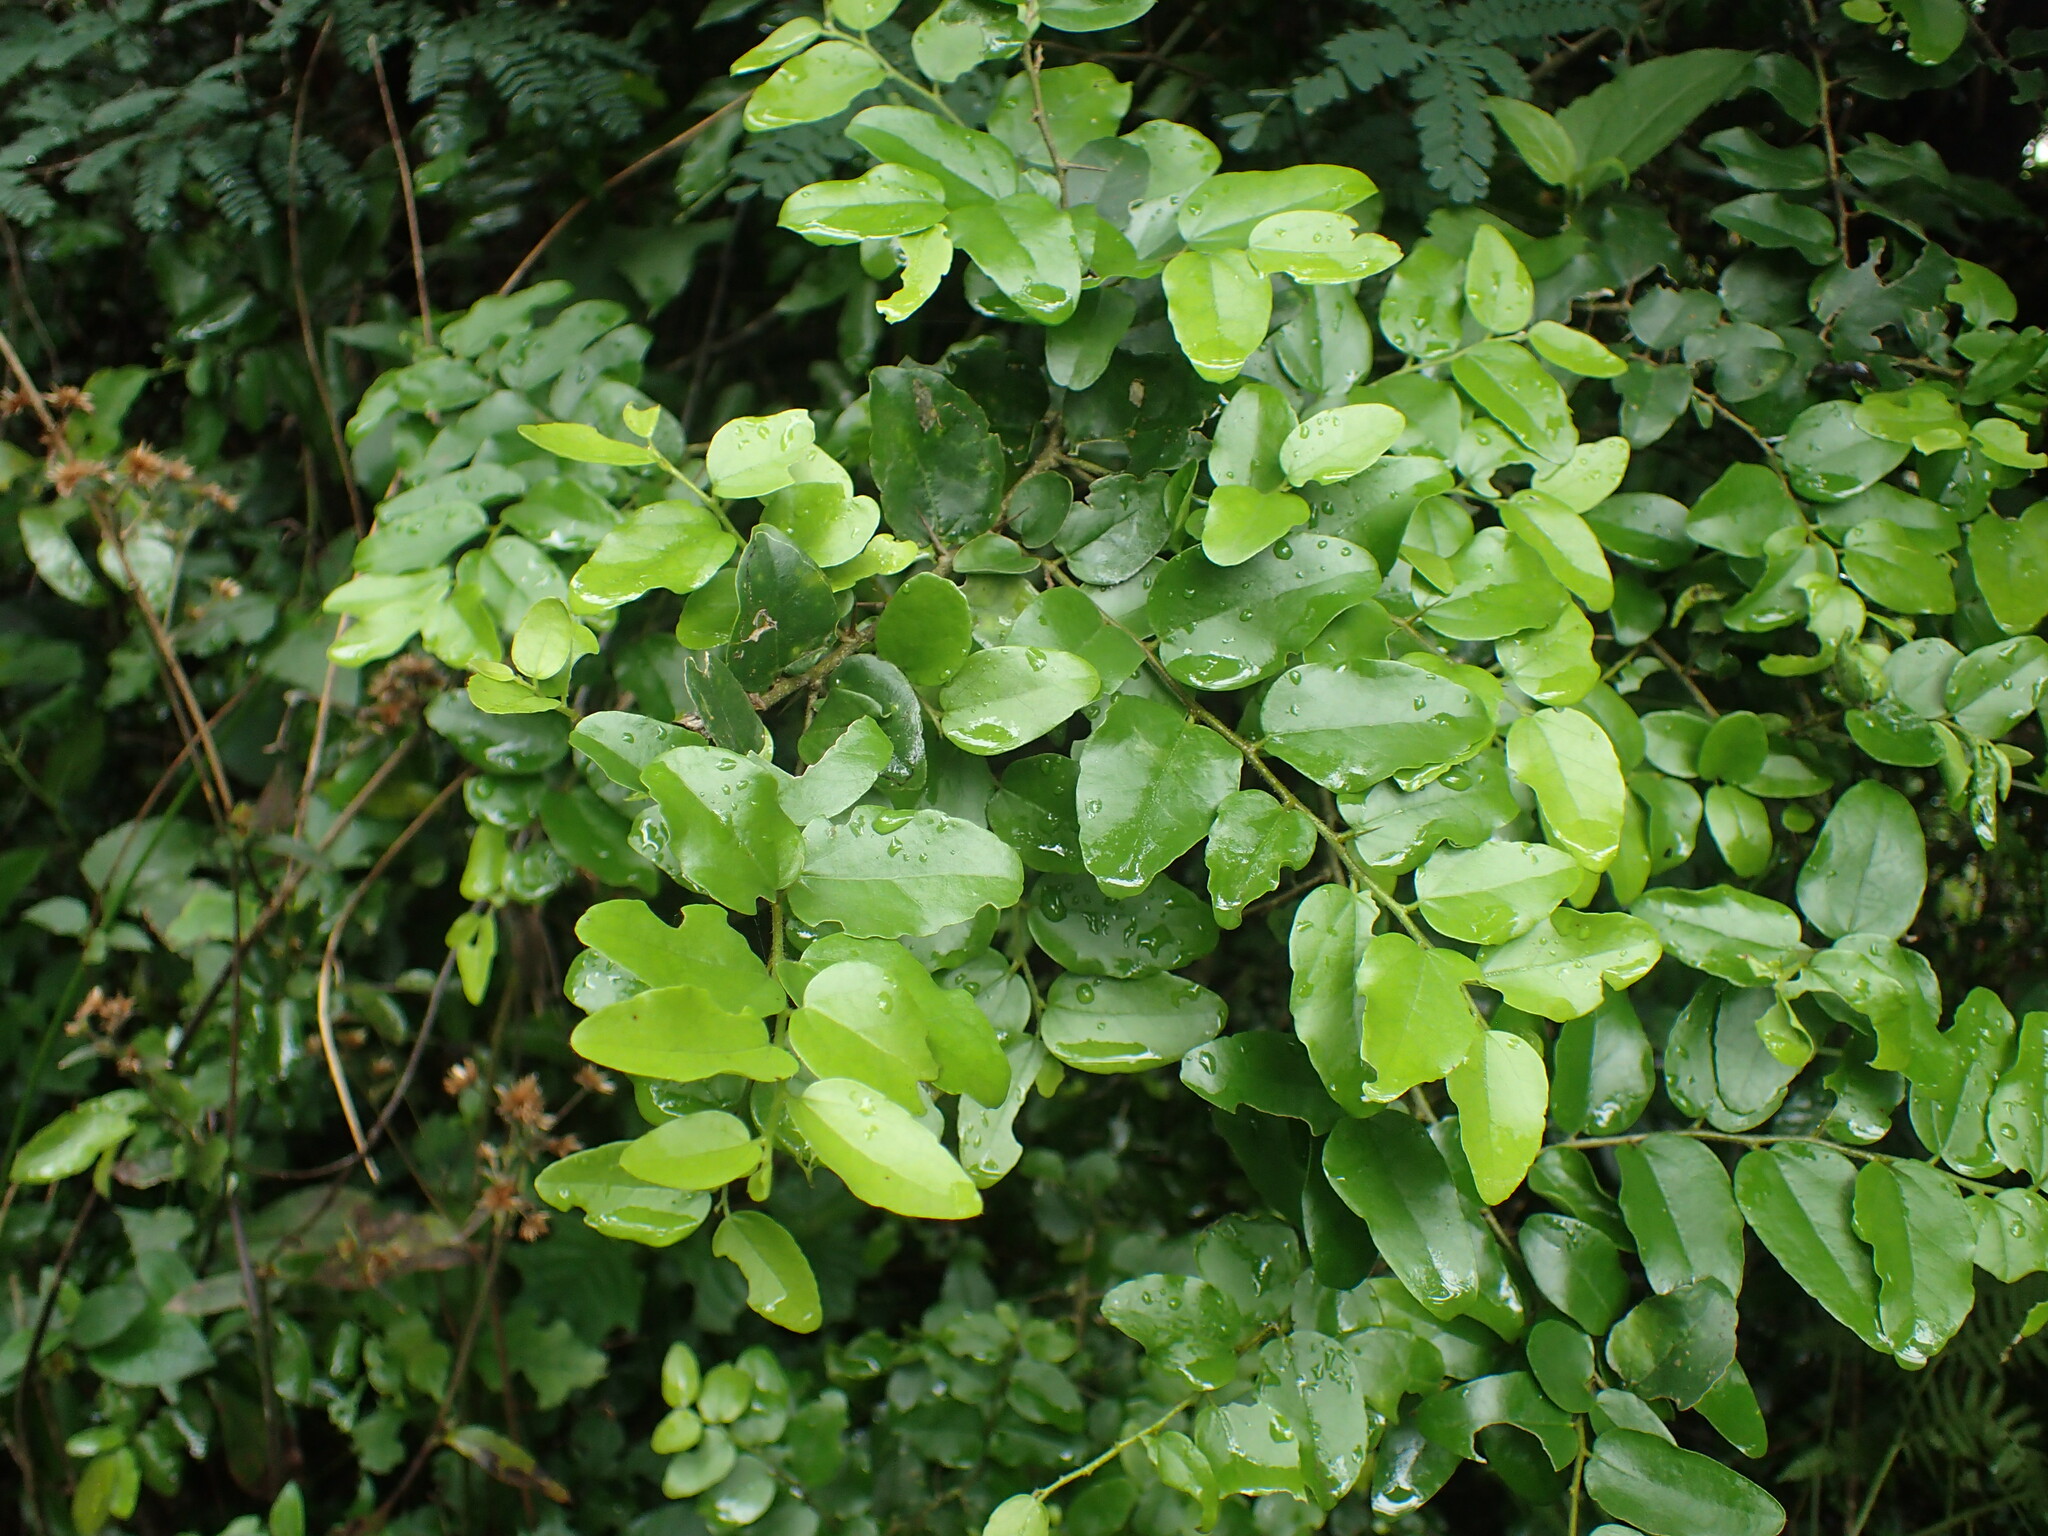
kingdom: Plantae
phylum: Tracheophyta
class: Magnoliopsida
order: Malpighiales
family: Salicaceae
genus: Dovyalis
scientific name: Dovyalis rhamnoides
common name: Sourberry
